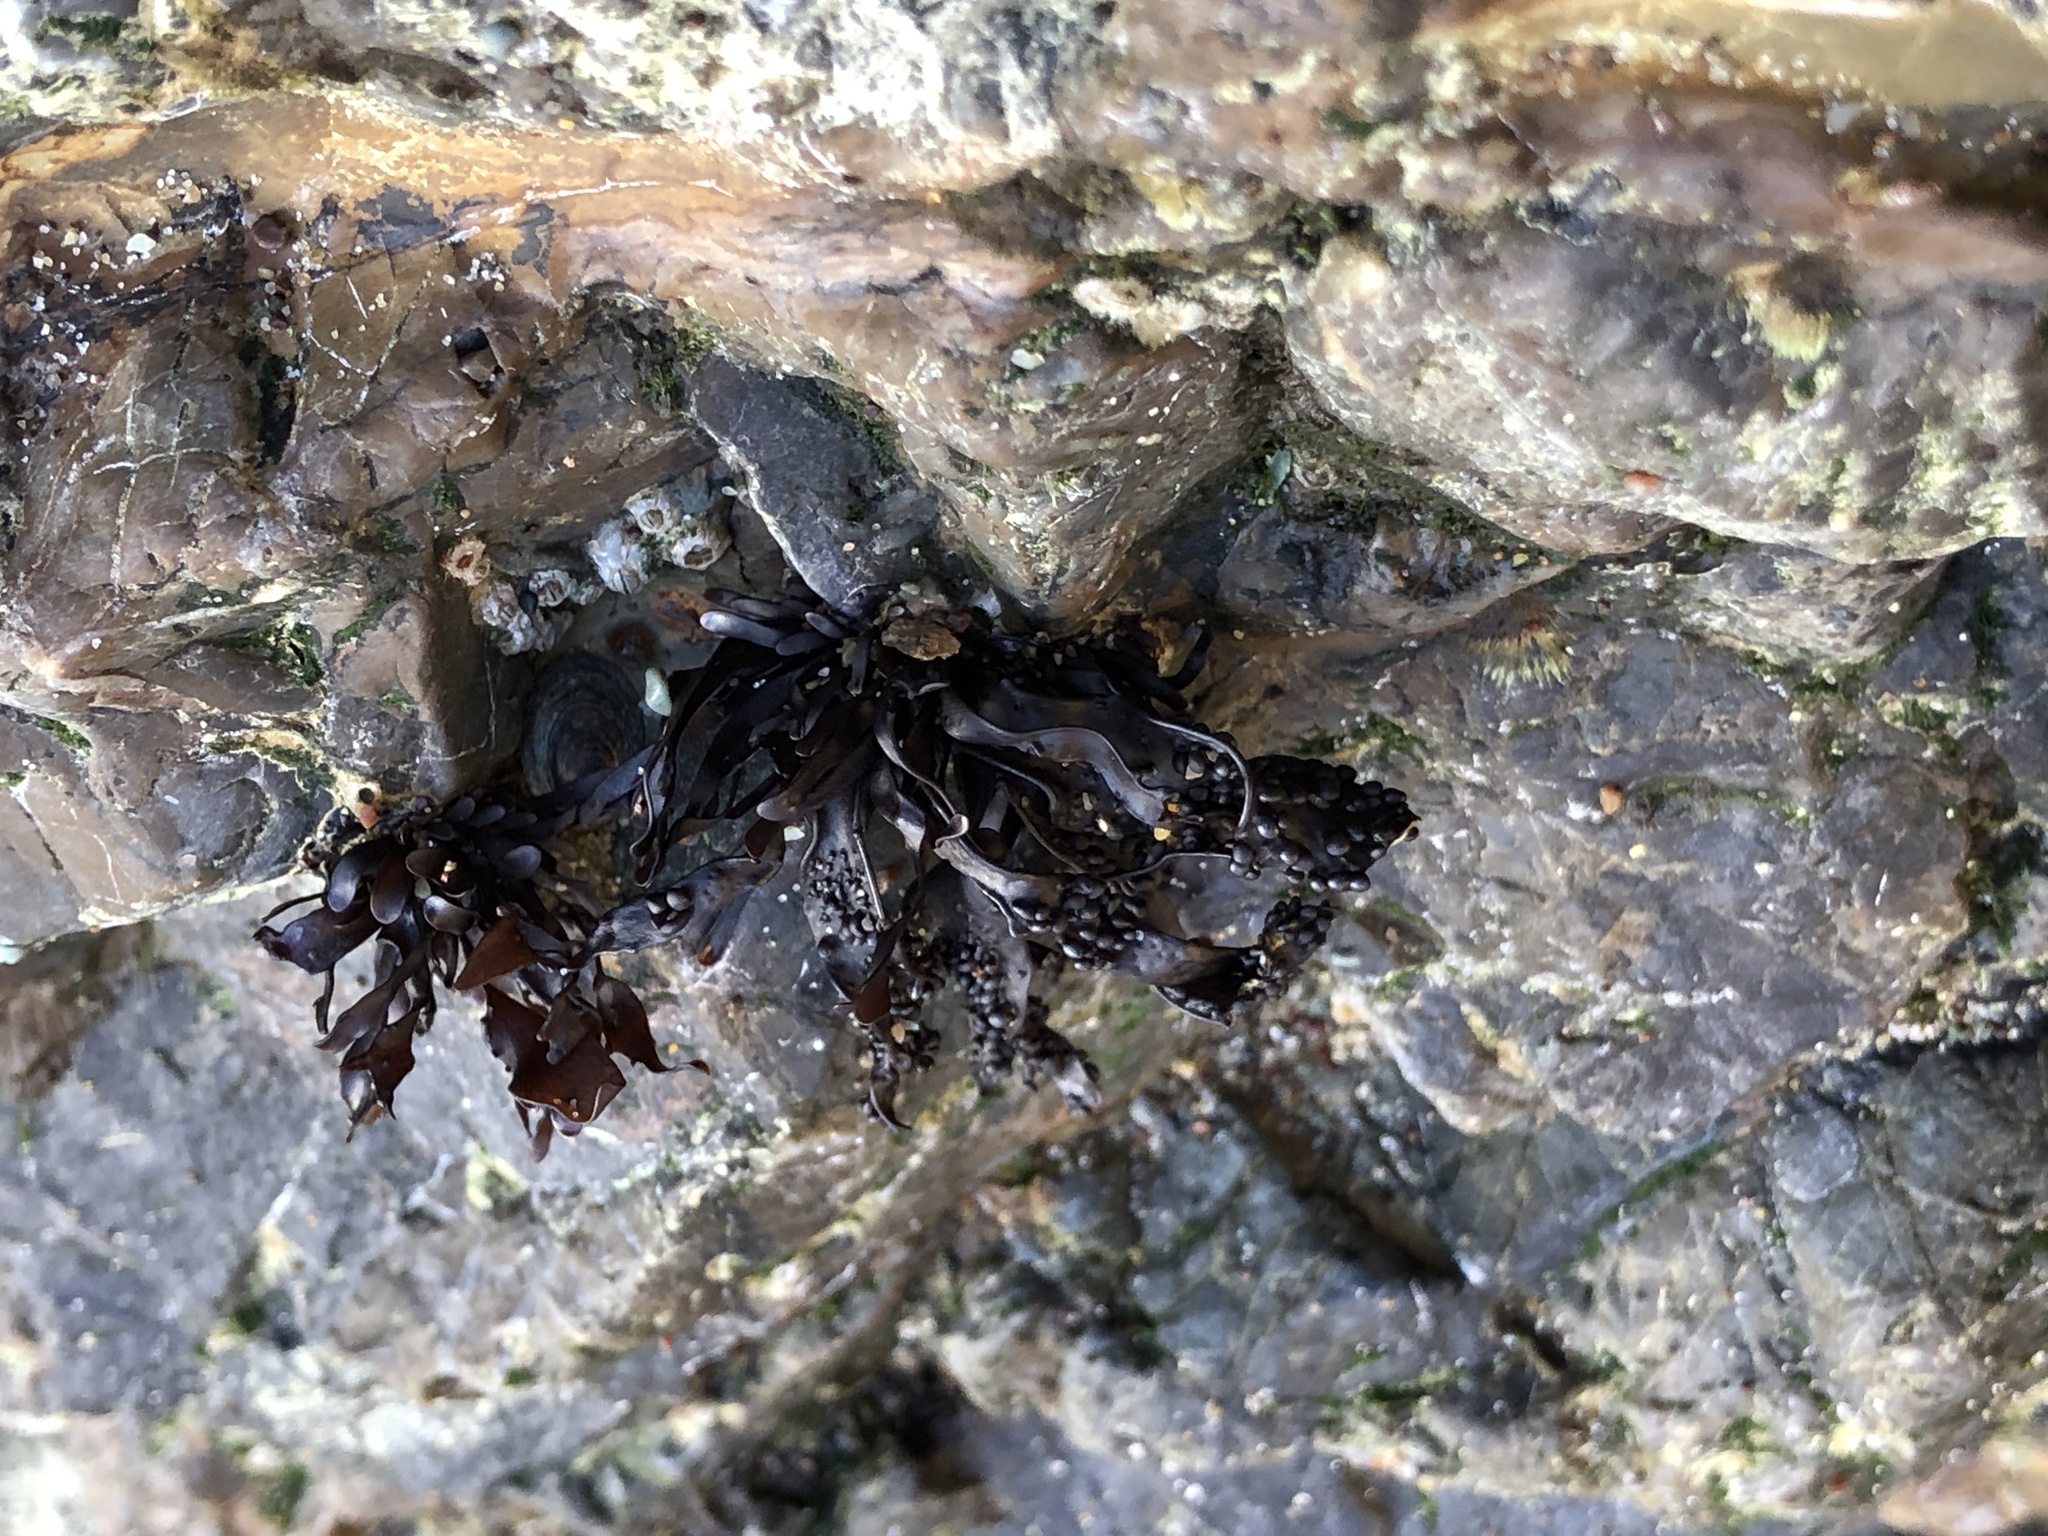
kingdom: Plantae
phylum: Rhodophyta
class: Florideophyceae
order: Gigartinales
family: Phyllophoraceae
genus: Mastocarpus
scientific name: Mastocarpus papillatus
